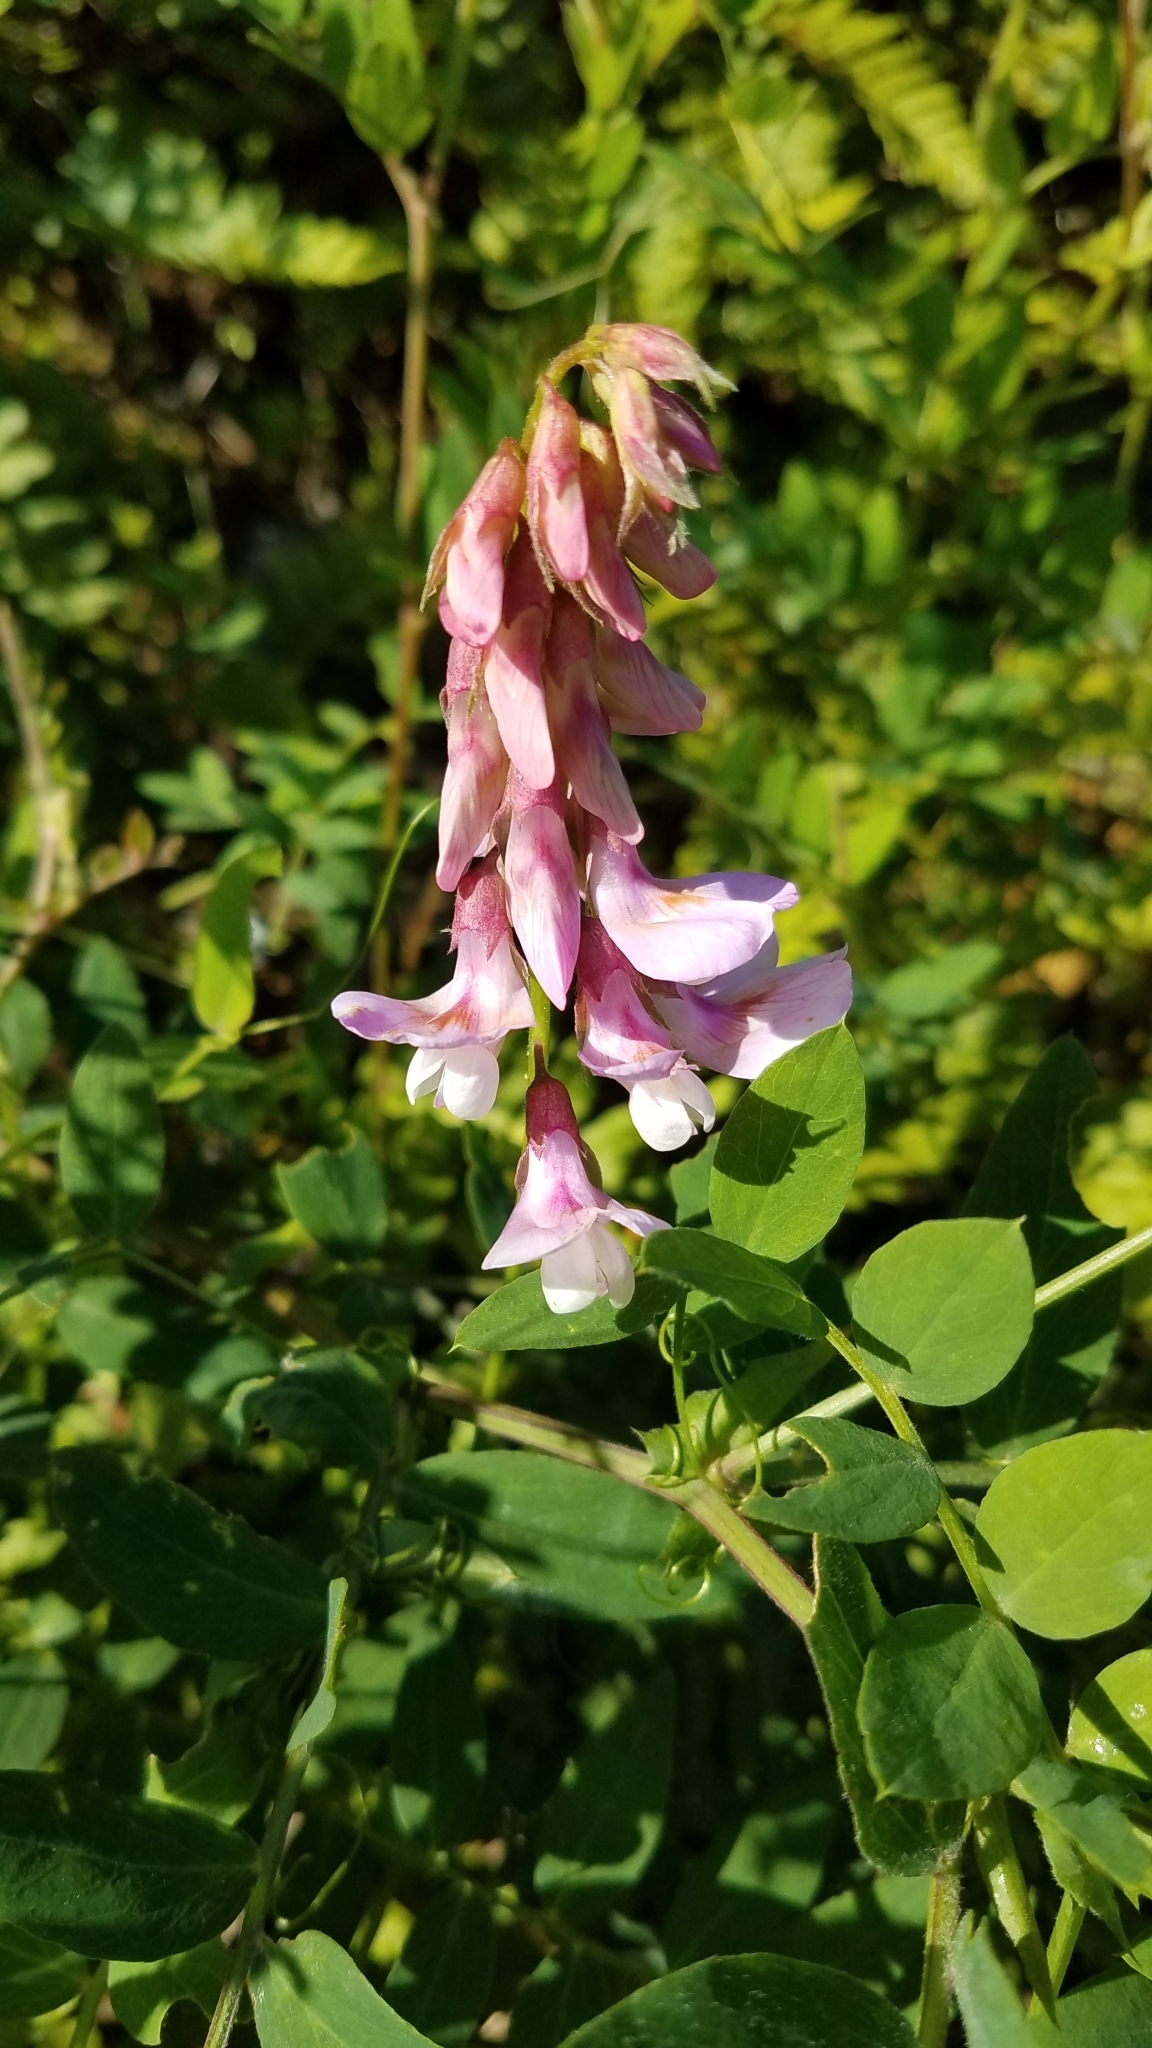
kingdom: Plantae
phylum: Tracheophyta
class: Magnoliopsida
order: Fabales
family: Fabaceae
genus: Lathyrus
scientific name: Lathyrus vestitus
